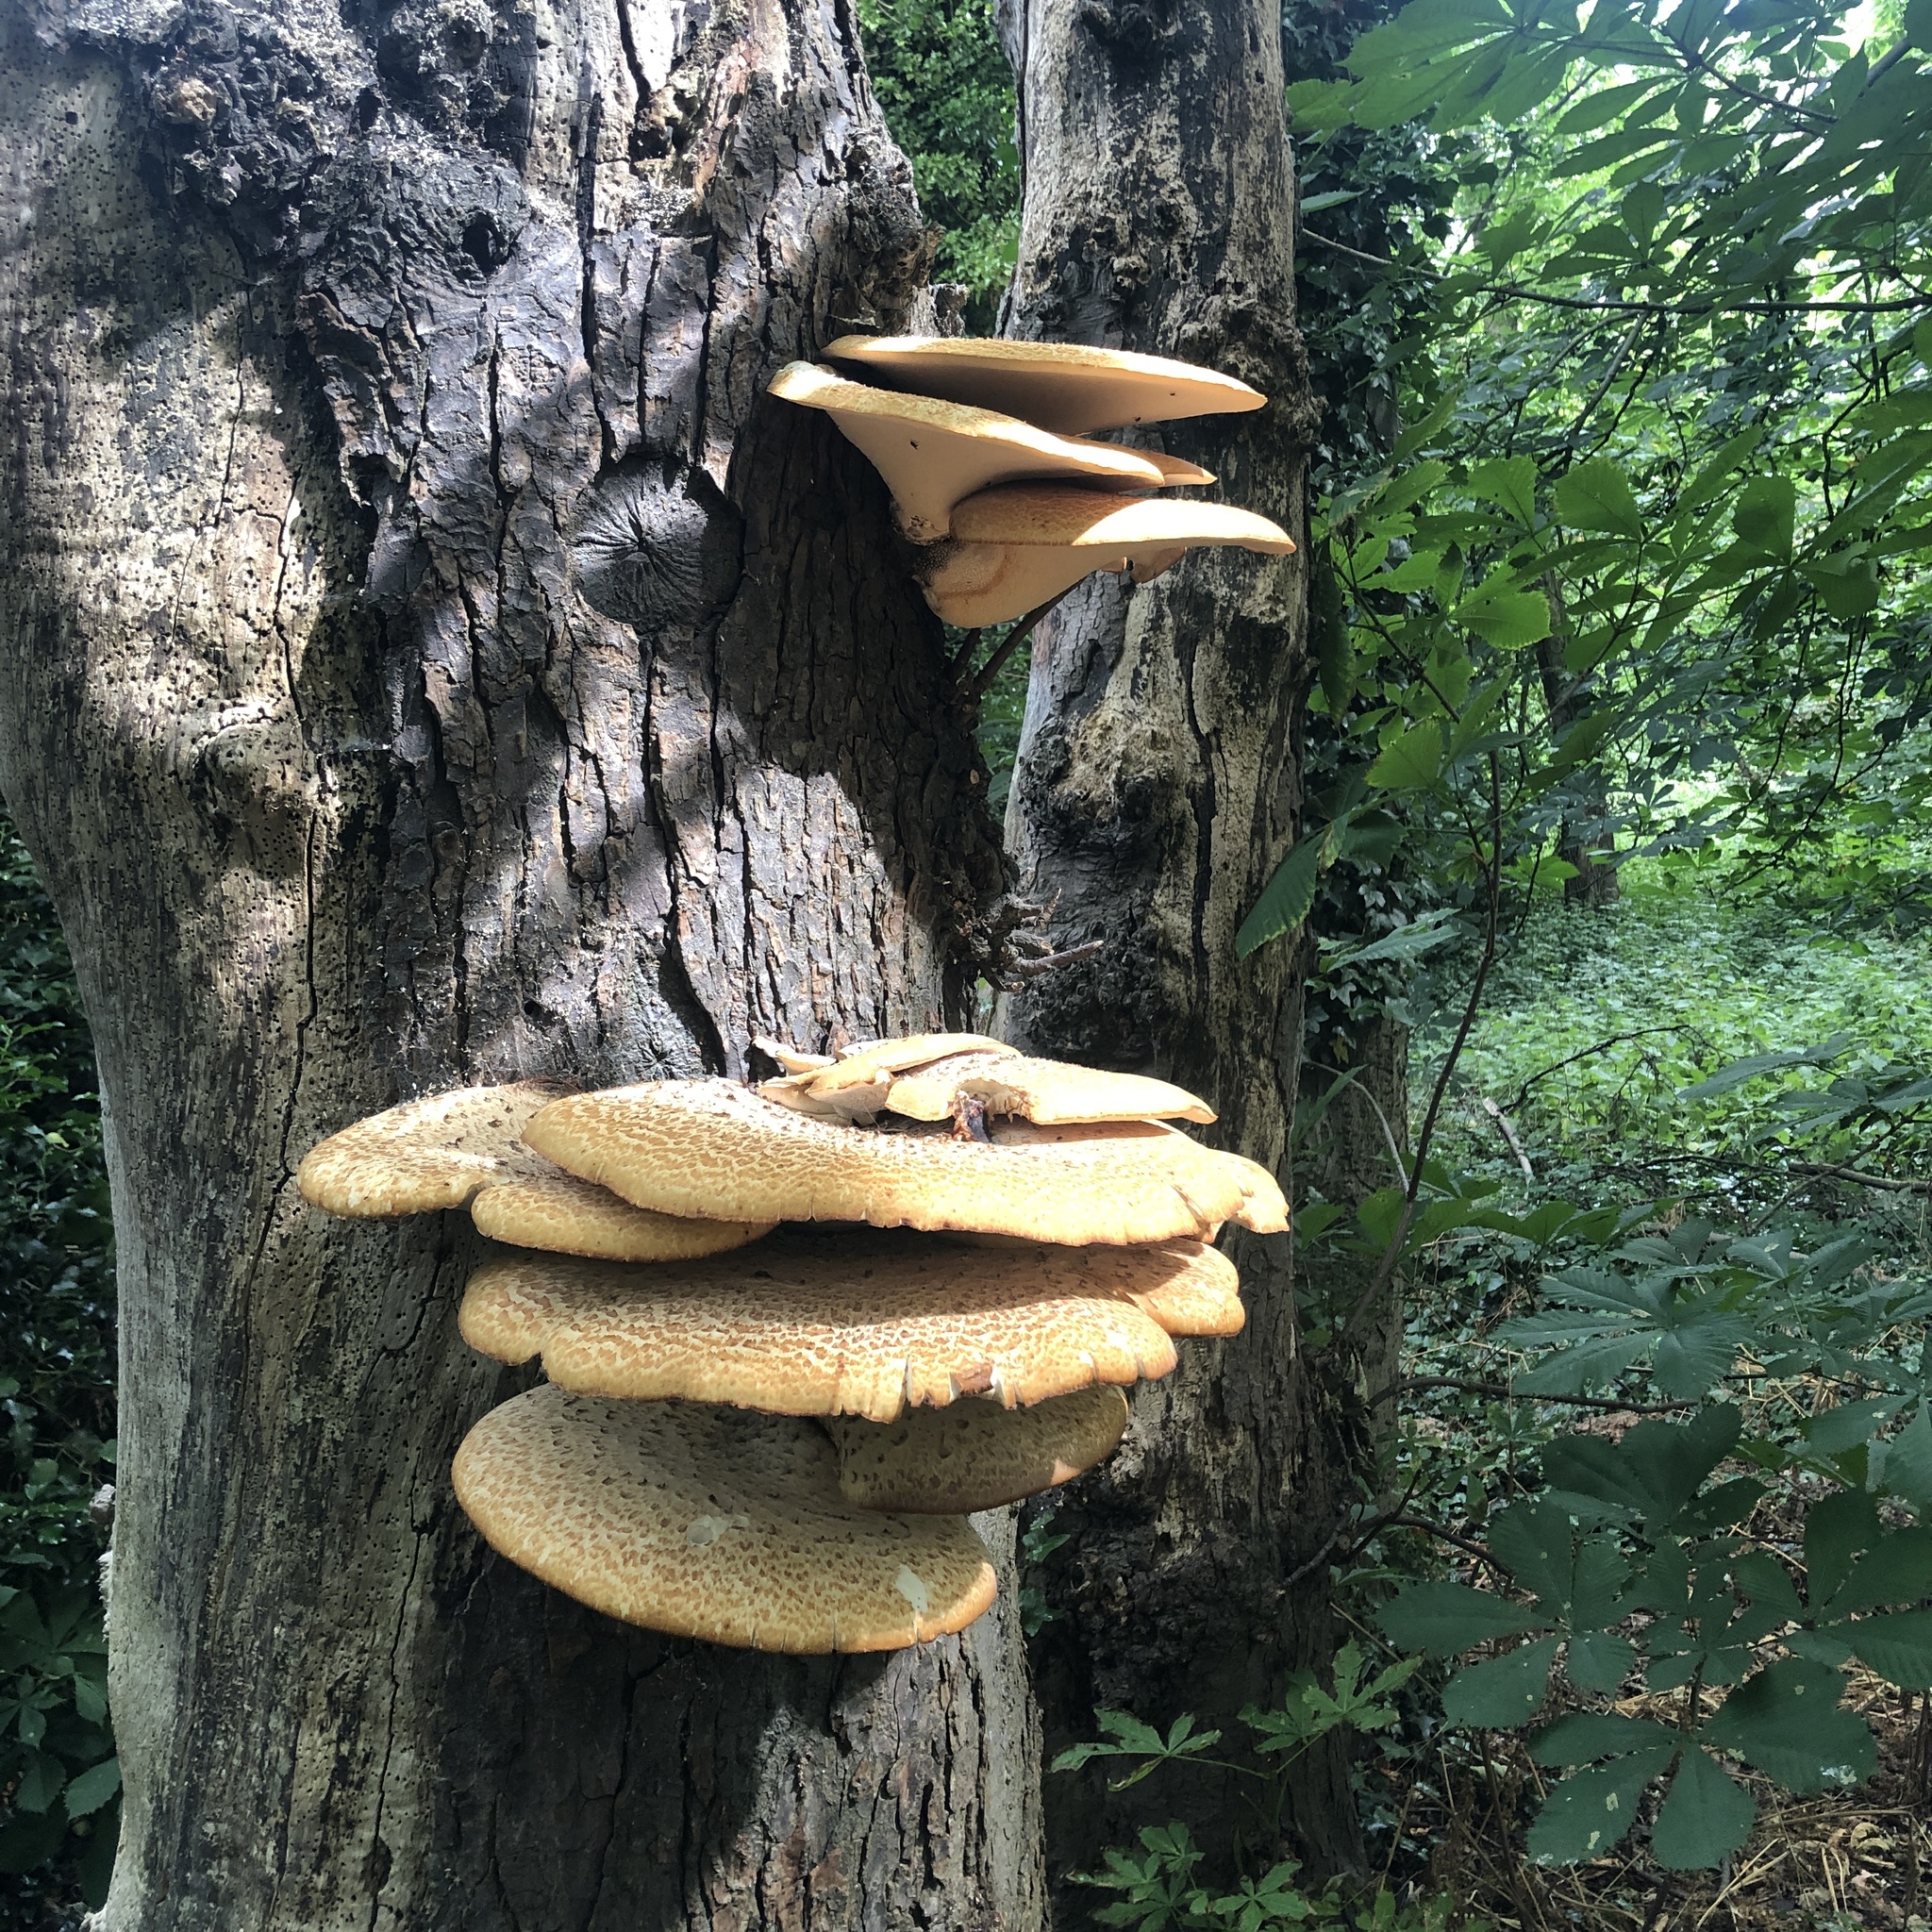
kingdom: Fungi
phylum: Basidiomycota
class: Agaricomycetes
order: Polyporales
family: Polyporaceae
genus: Cerioporus
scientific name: Cerioporus squamosus
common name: Dryad's saddle
